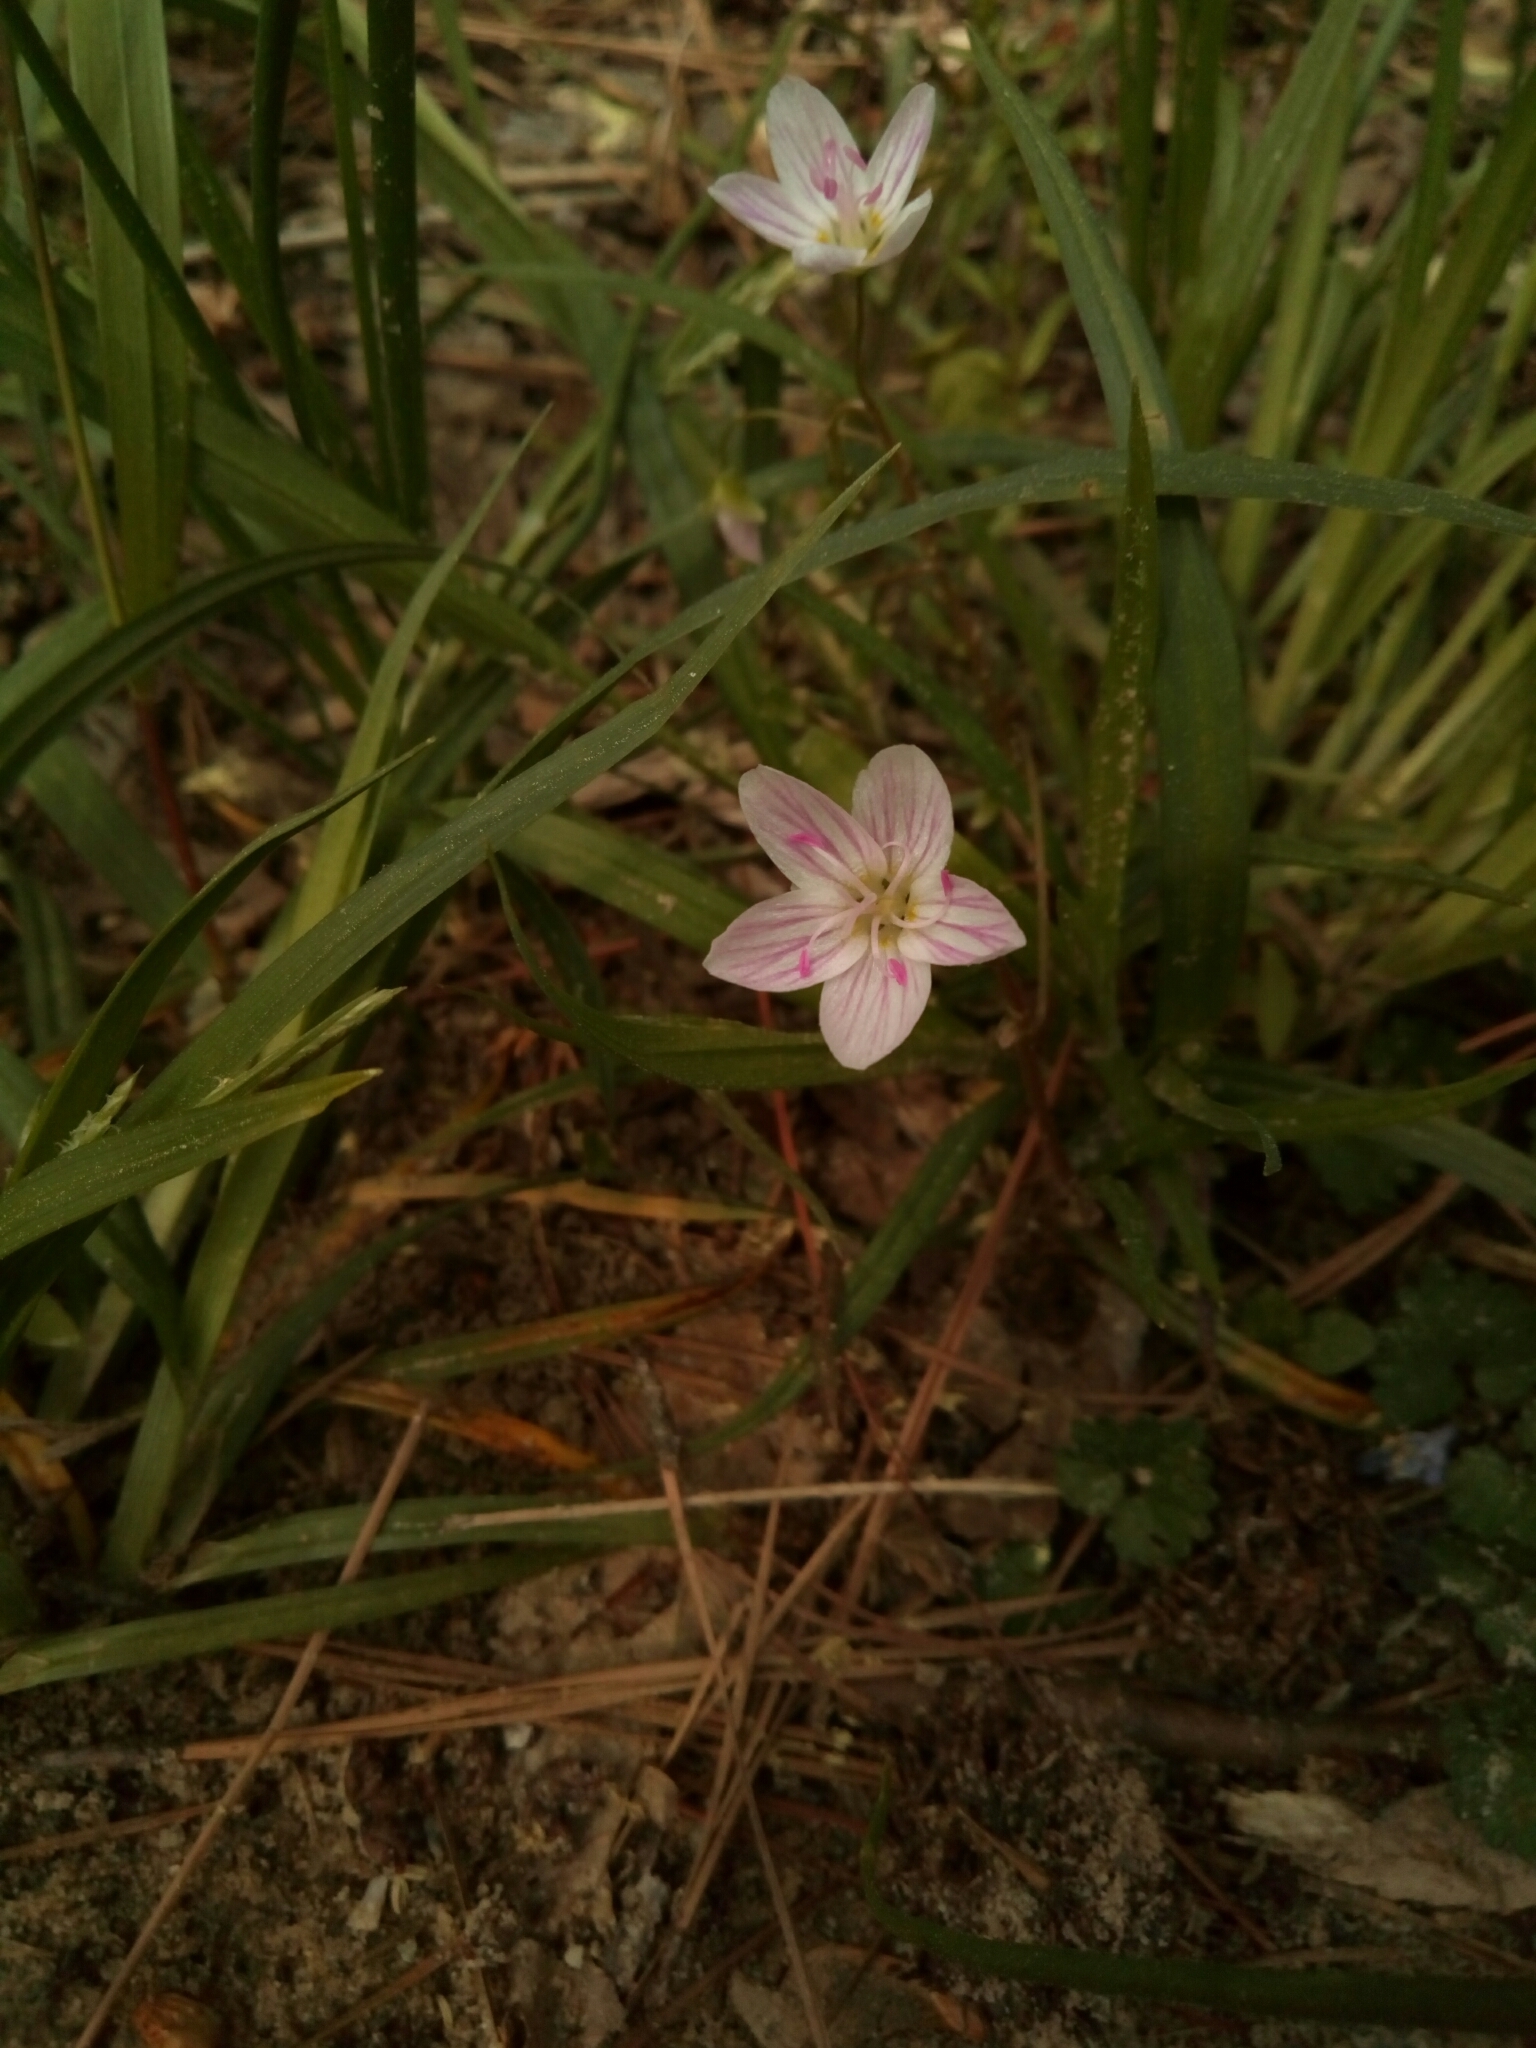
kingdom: Plantae
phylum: Tracheophyta
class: Magnoliopsida
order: Caryophyllales
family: Montiaceae
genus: Claytonia
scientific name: Claytonia virginica
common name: Virginia springbeauty
